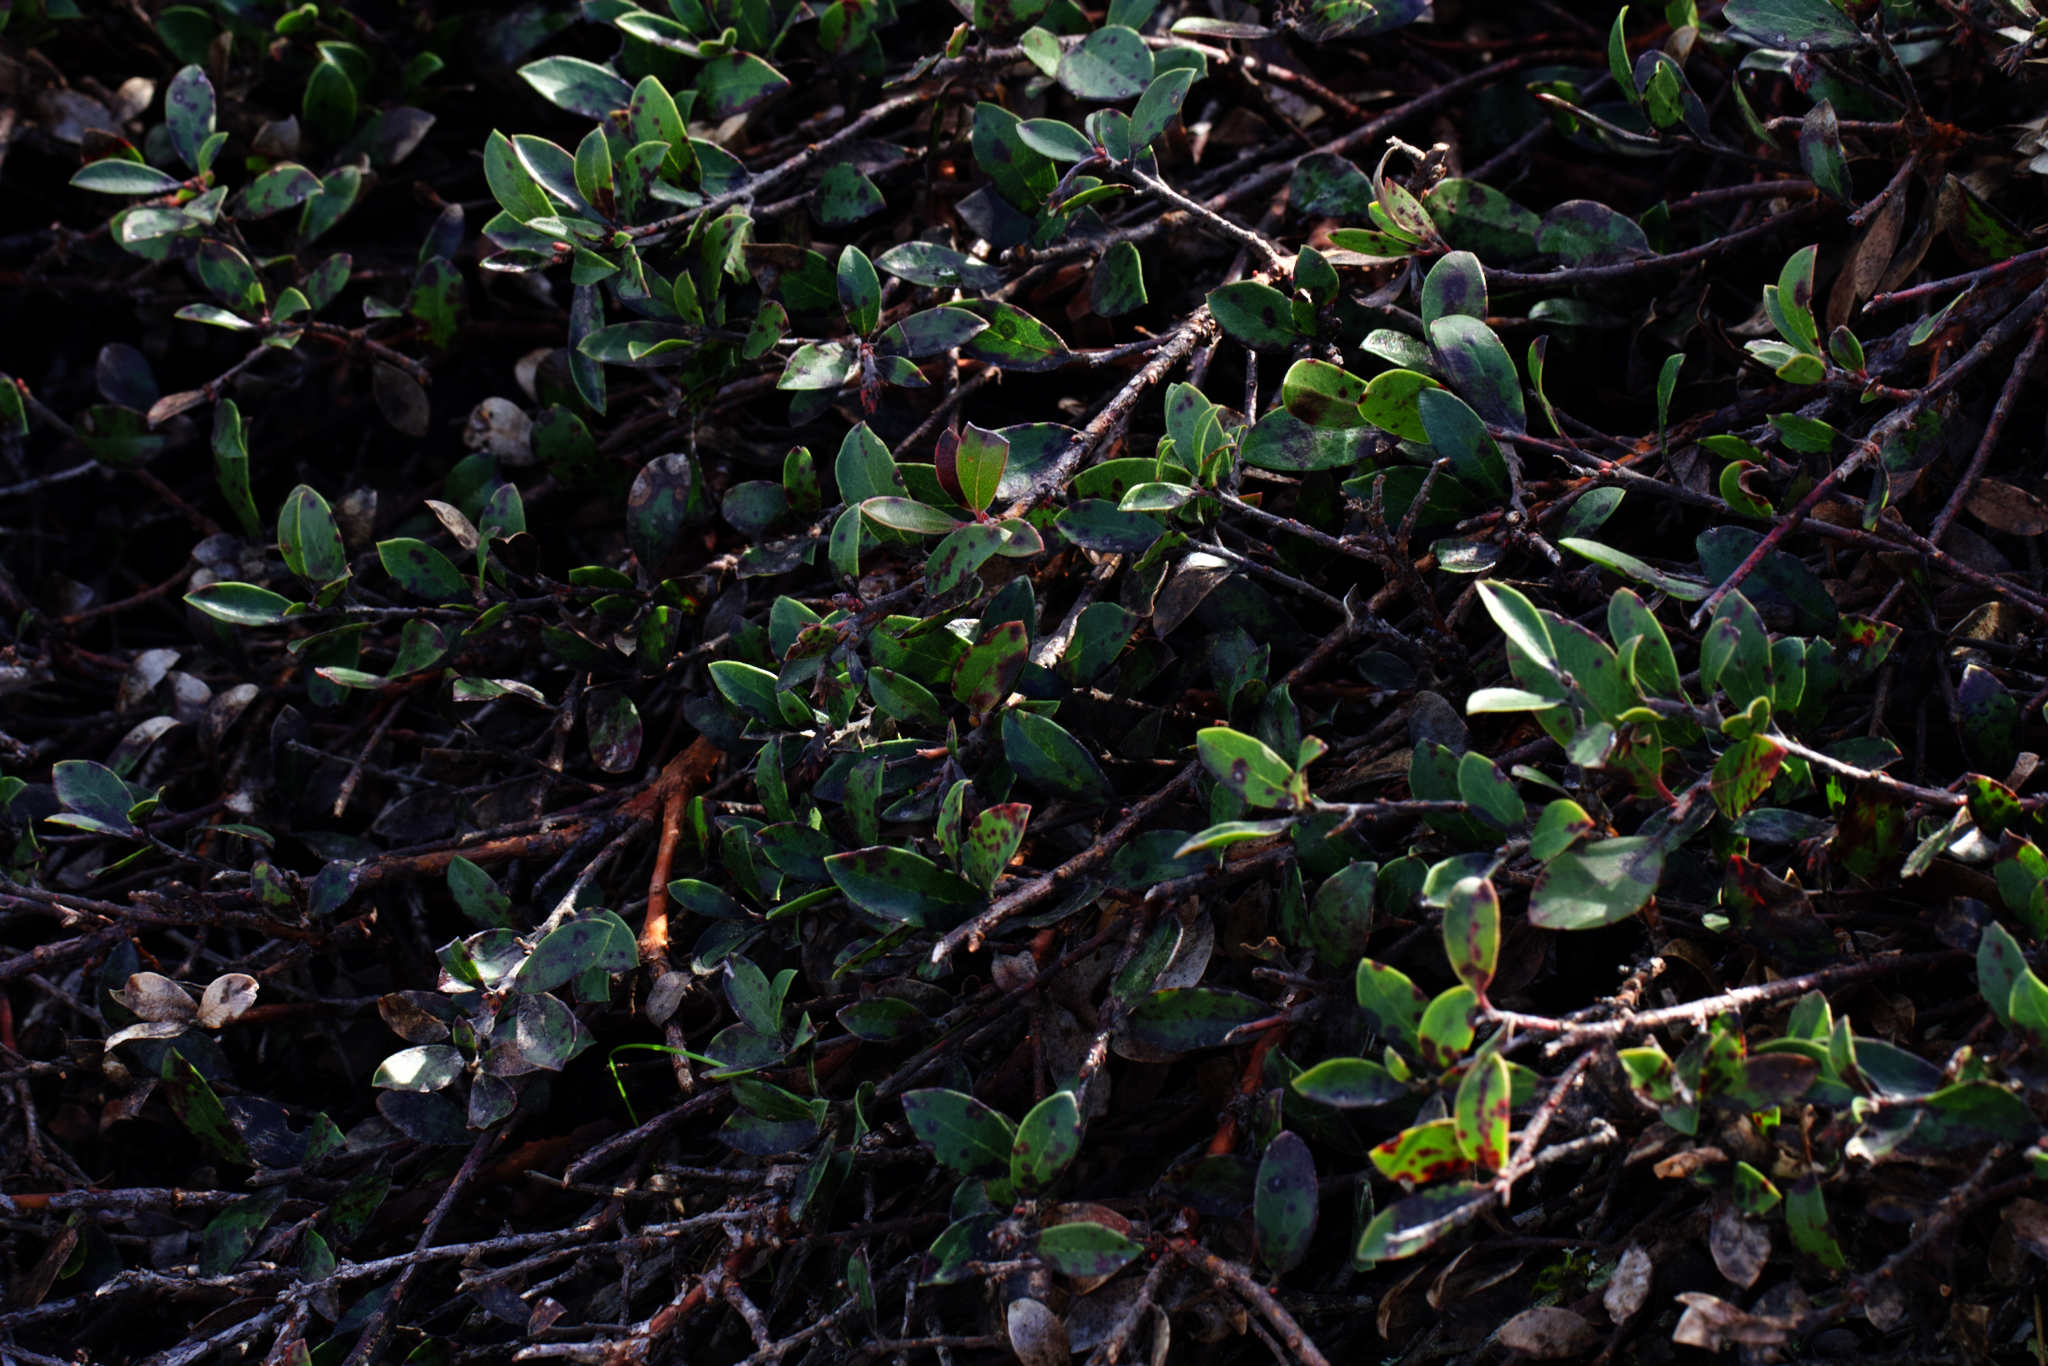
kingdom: Plantae
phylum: Tracheophyta
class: Magnoliopsida
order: Ericales
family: Ericaceae
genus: Arctostaphylos
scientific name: Arctostaphylos uva-ursi
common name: Bearberry
